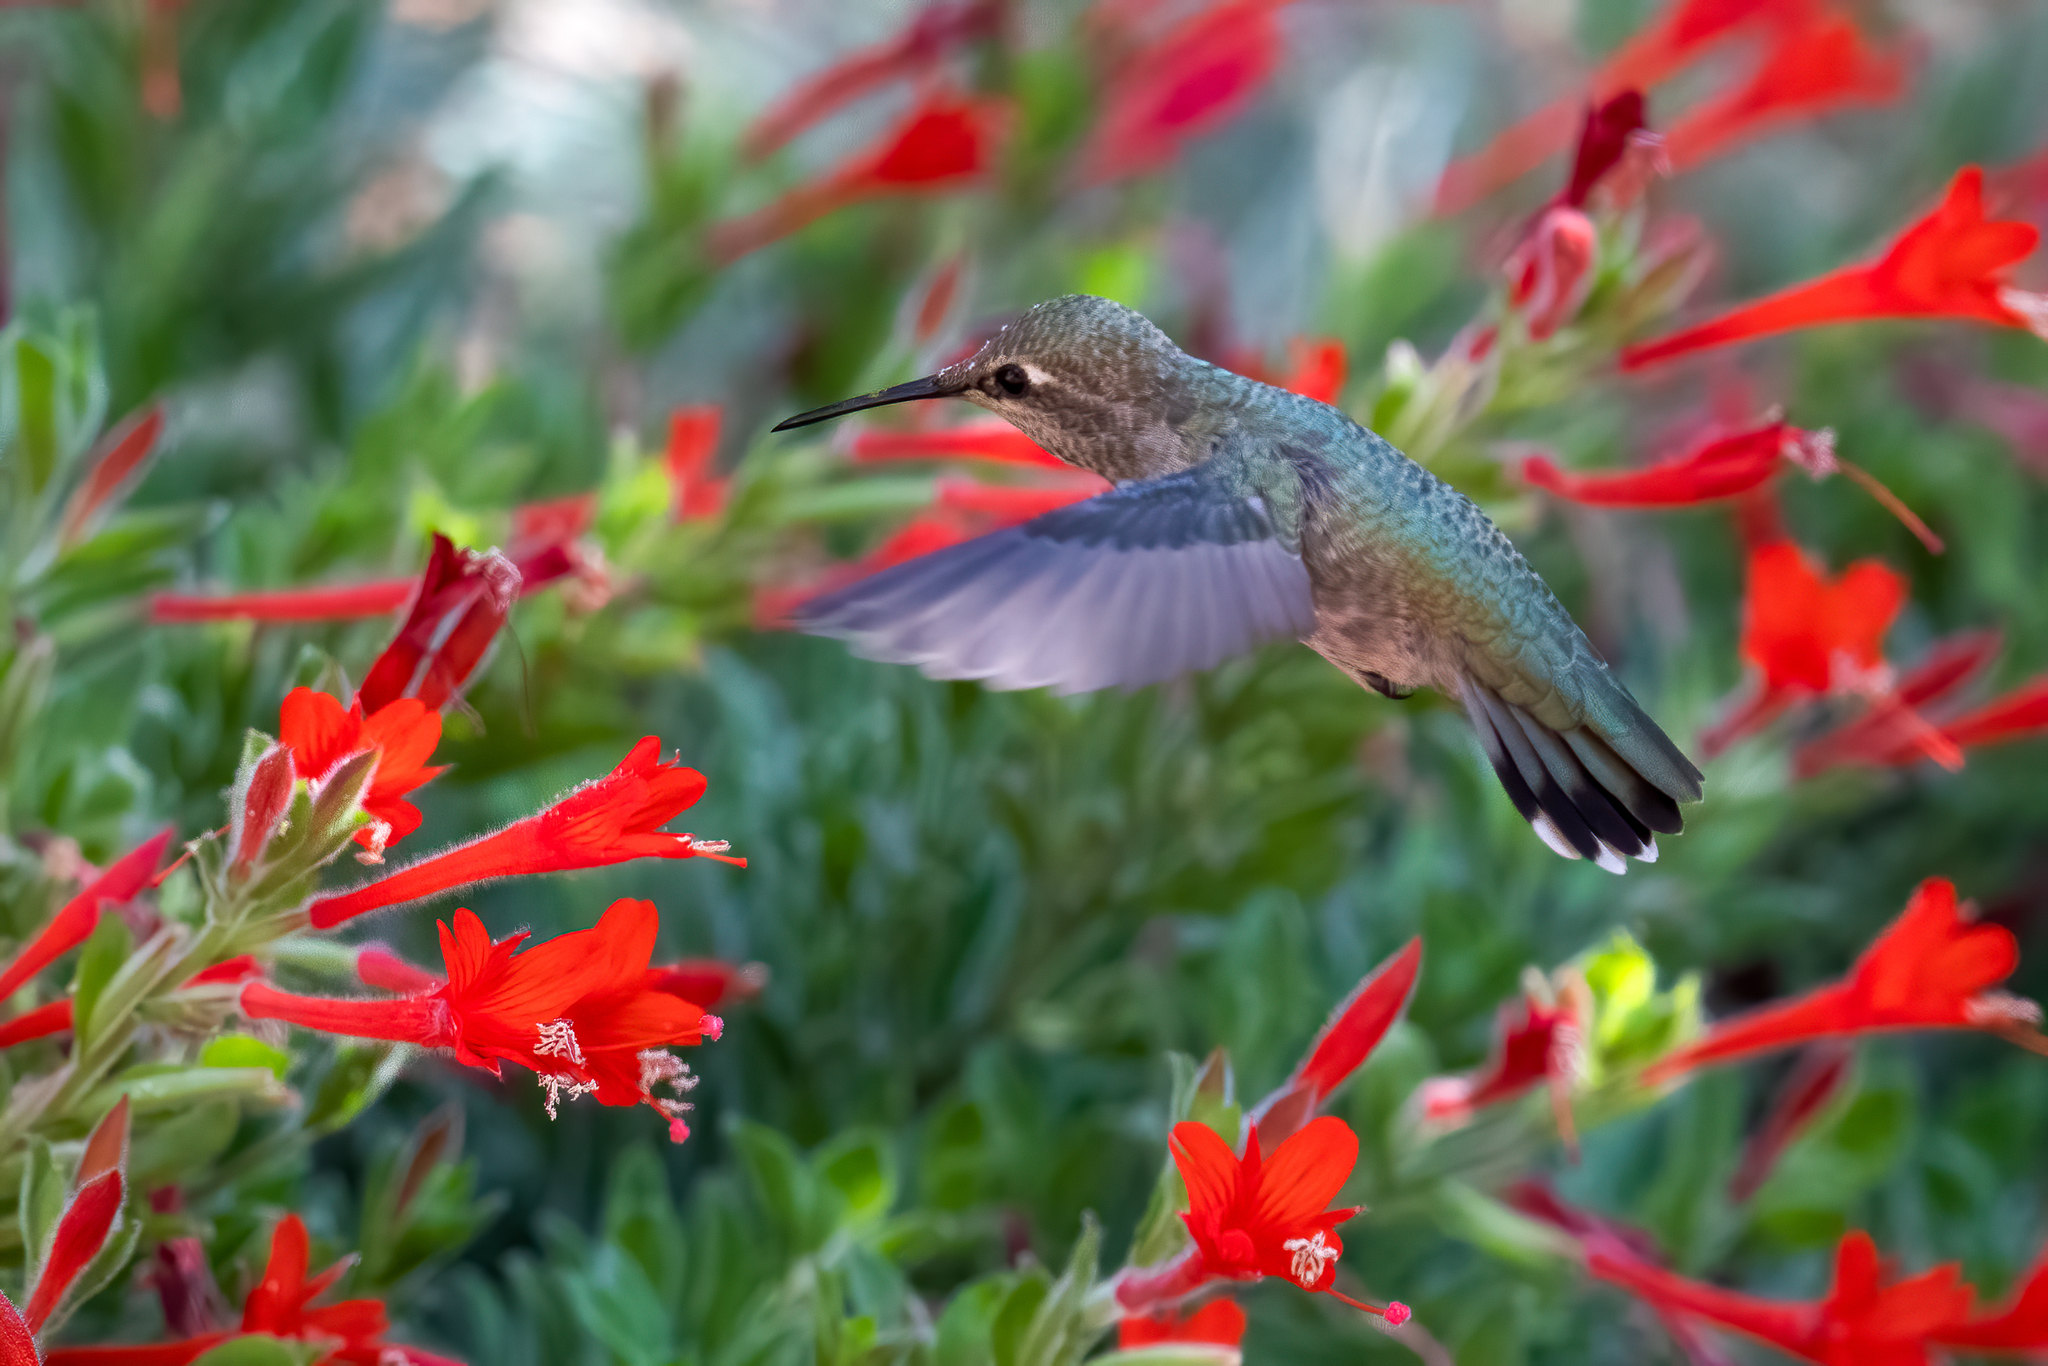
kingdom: Animalia
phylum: Chordata
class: Aves
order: Apodiformes
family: Trochilidae
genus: Calypte
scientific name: Calypte anna
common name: Anna's hummingbird
